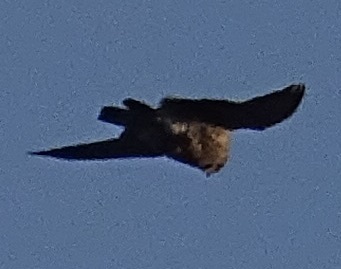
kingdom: Animalia
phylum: Chordata
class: Aves
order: Falconiformes
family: Falconidae
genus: Falco
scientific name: Falco peregrinus
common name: Peregrine falcon
